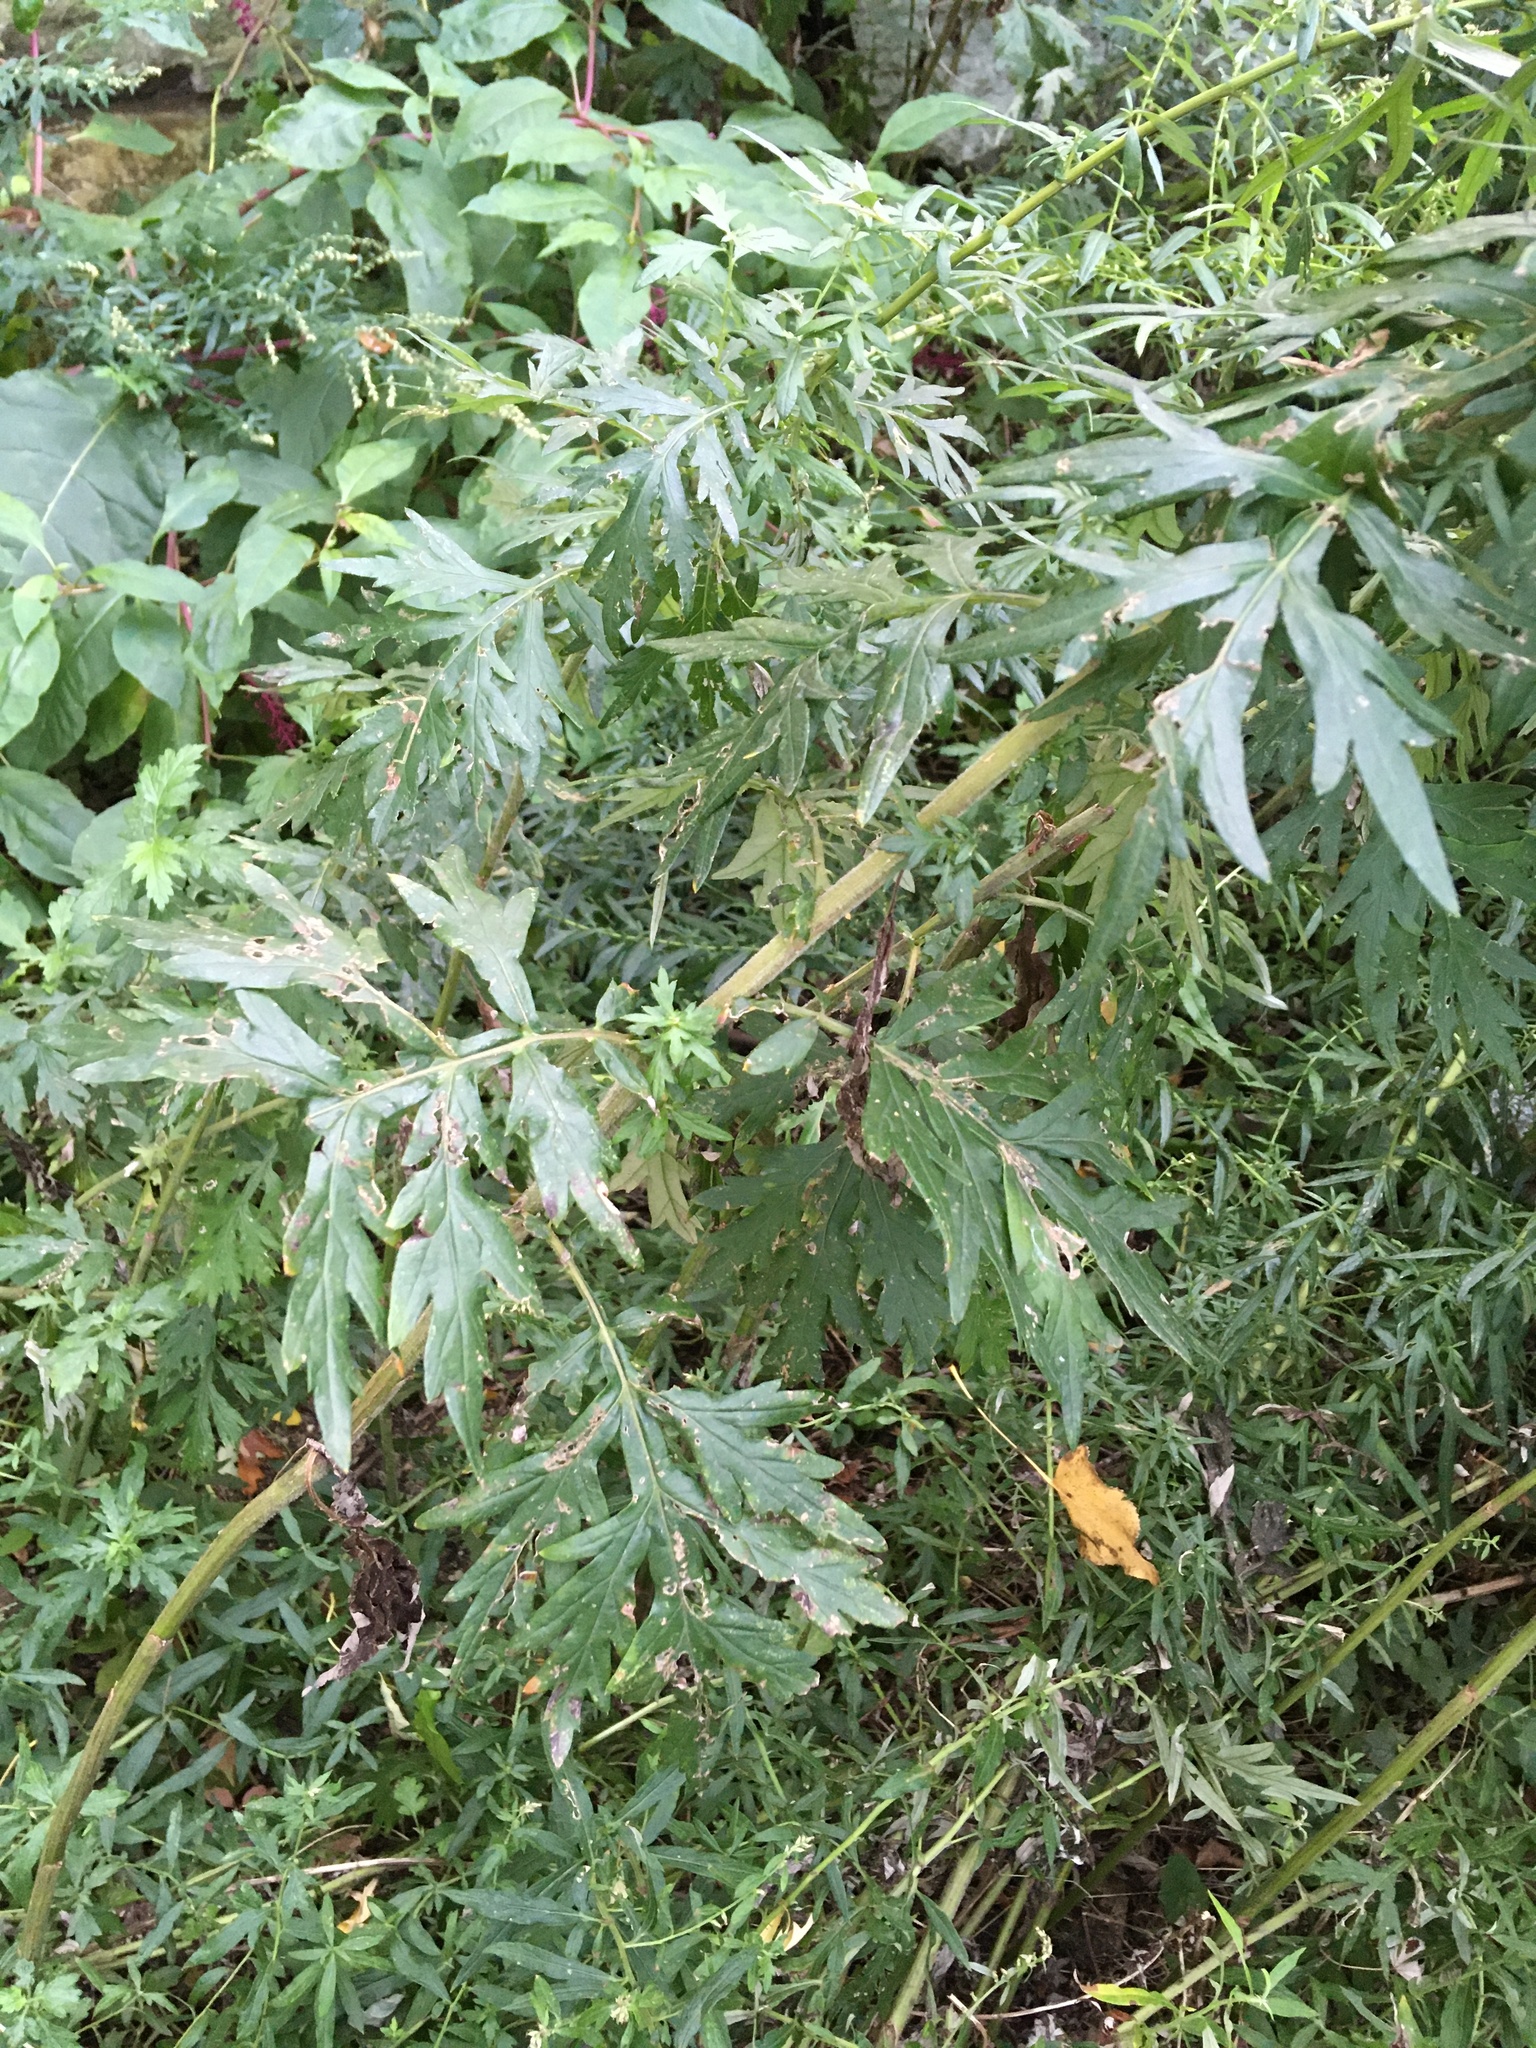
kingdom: Plantae
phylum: Tracheophyta
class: Magnoliopsida
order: Asterales
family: Asteraceae
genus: Artemisia
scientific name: Artemisia vulgaris
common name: Mugwort
